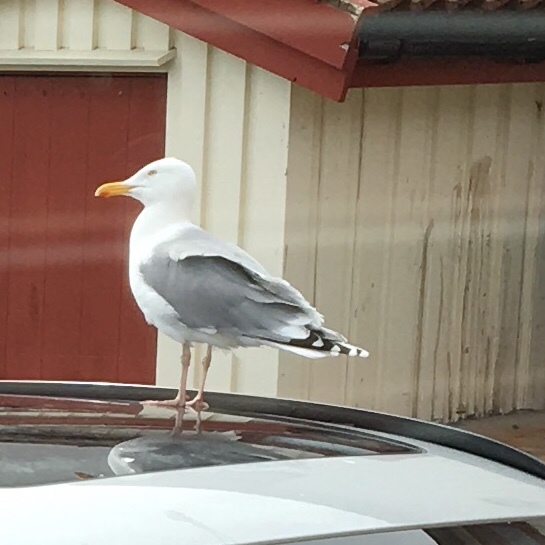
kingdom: Animalia
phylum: Chordata
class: Aves
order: Charadriiformes
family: Laridae
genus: Larus
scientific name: Larus argentatus
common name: Herring gull
